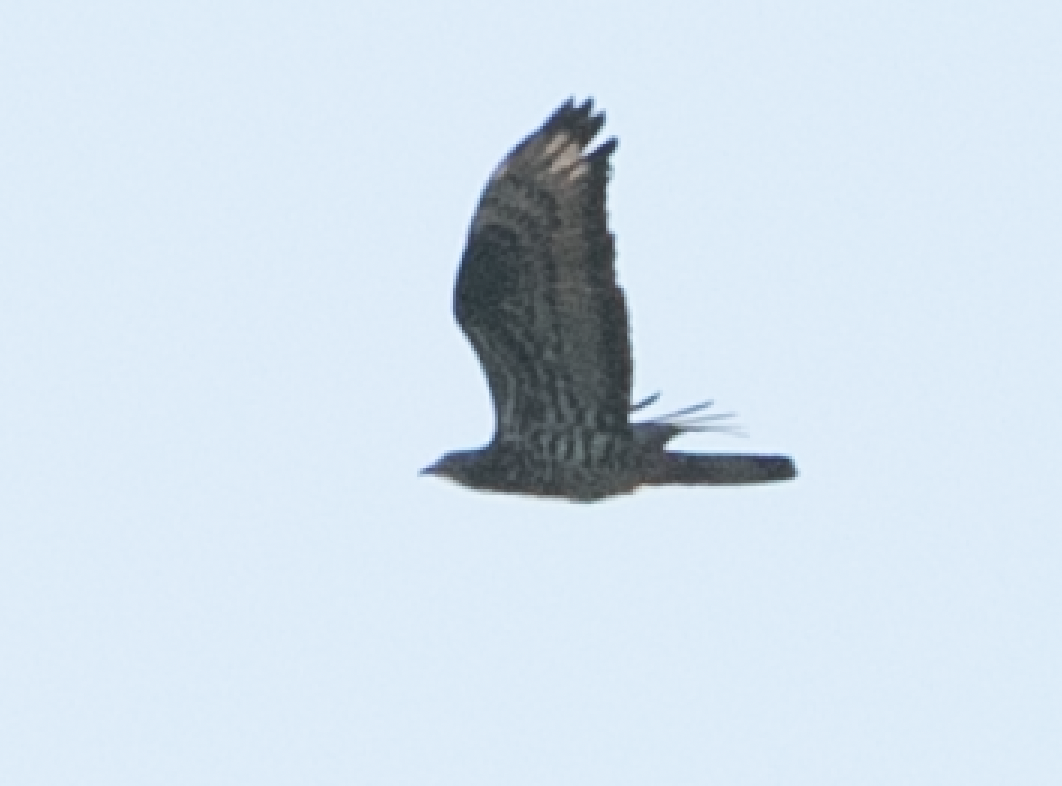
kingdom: Animalia
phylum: Chordata
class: Aves
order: Accipitriformes
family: Accipitridae
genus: Pernis
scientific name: Pernis apivorus
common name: European honey buzzard
